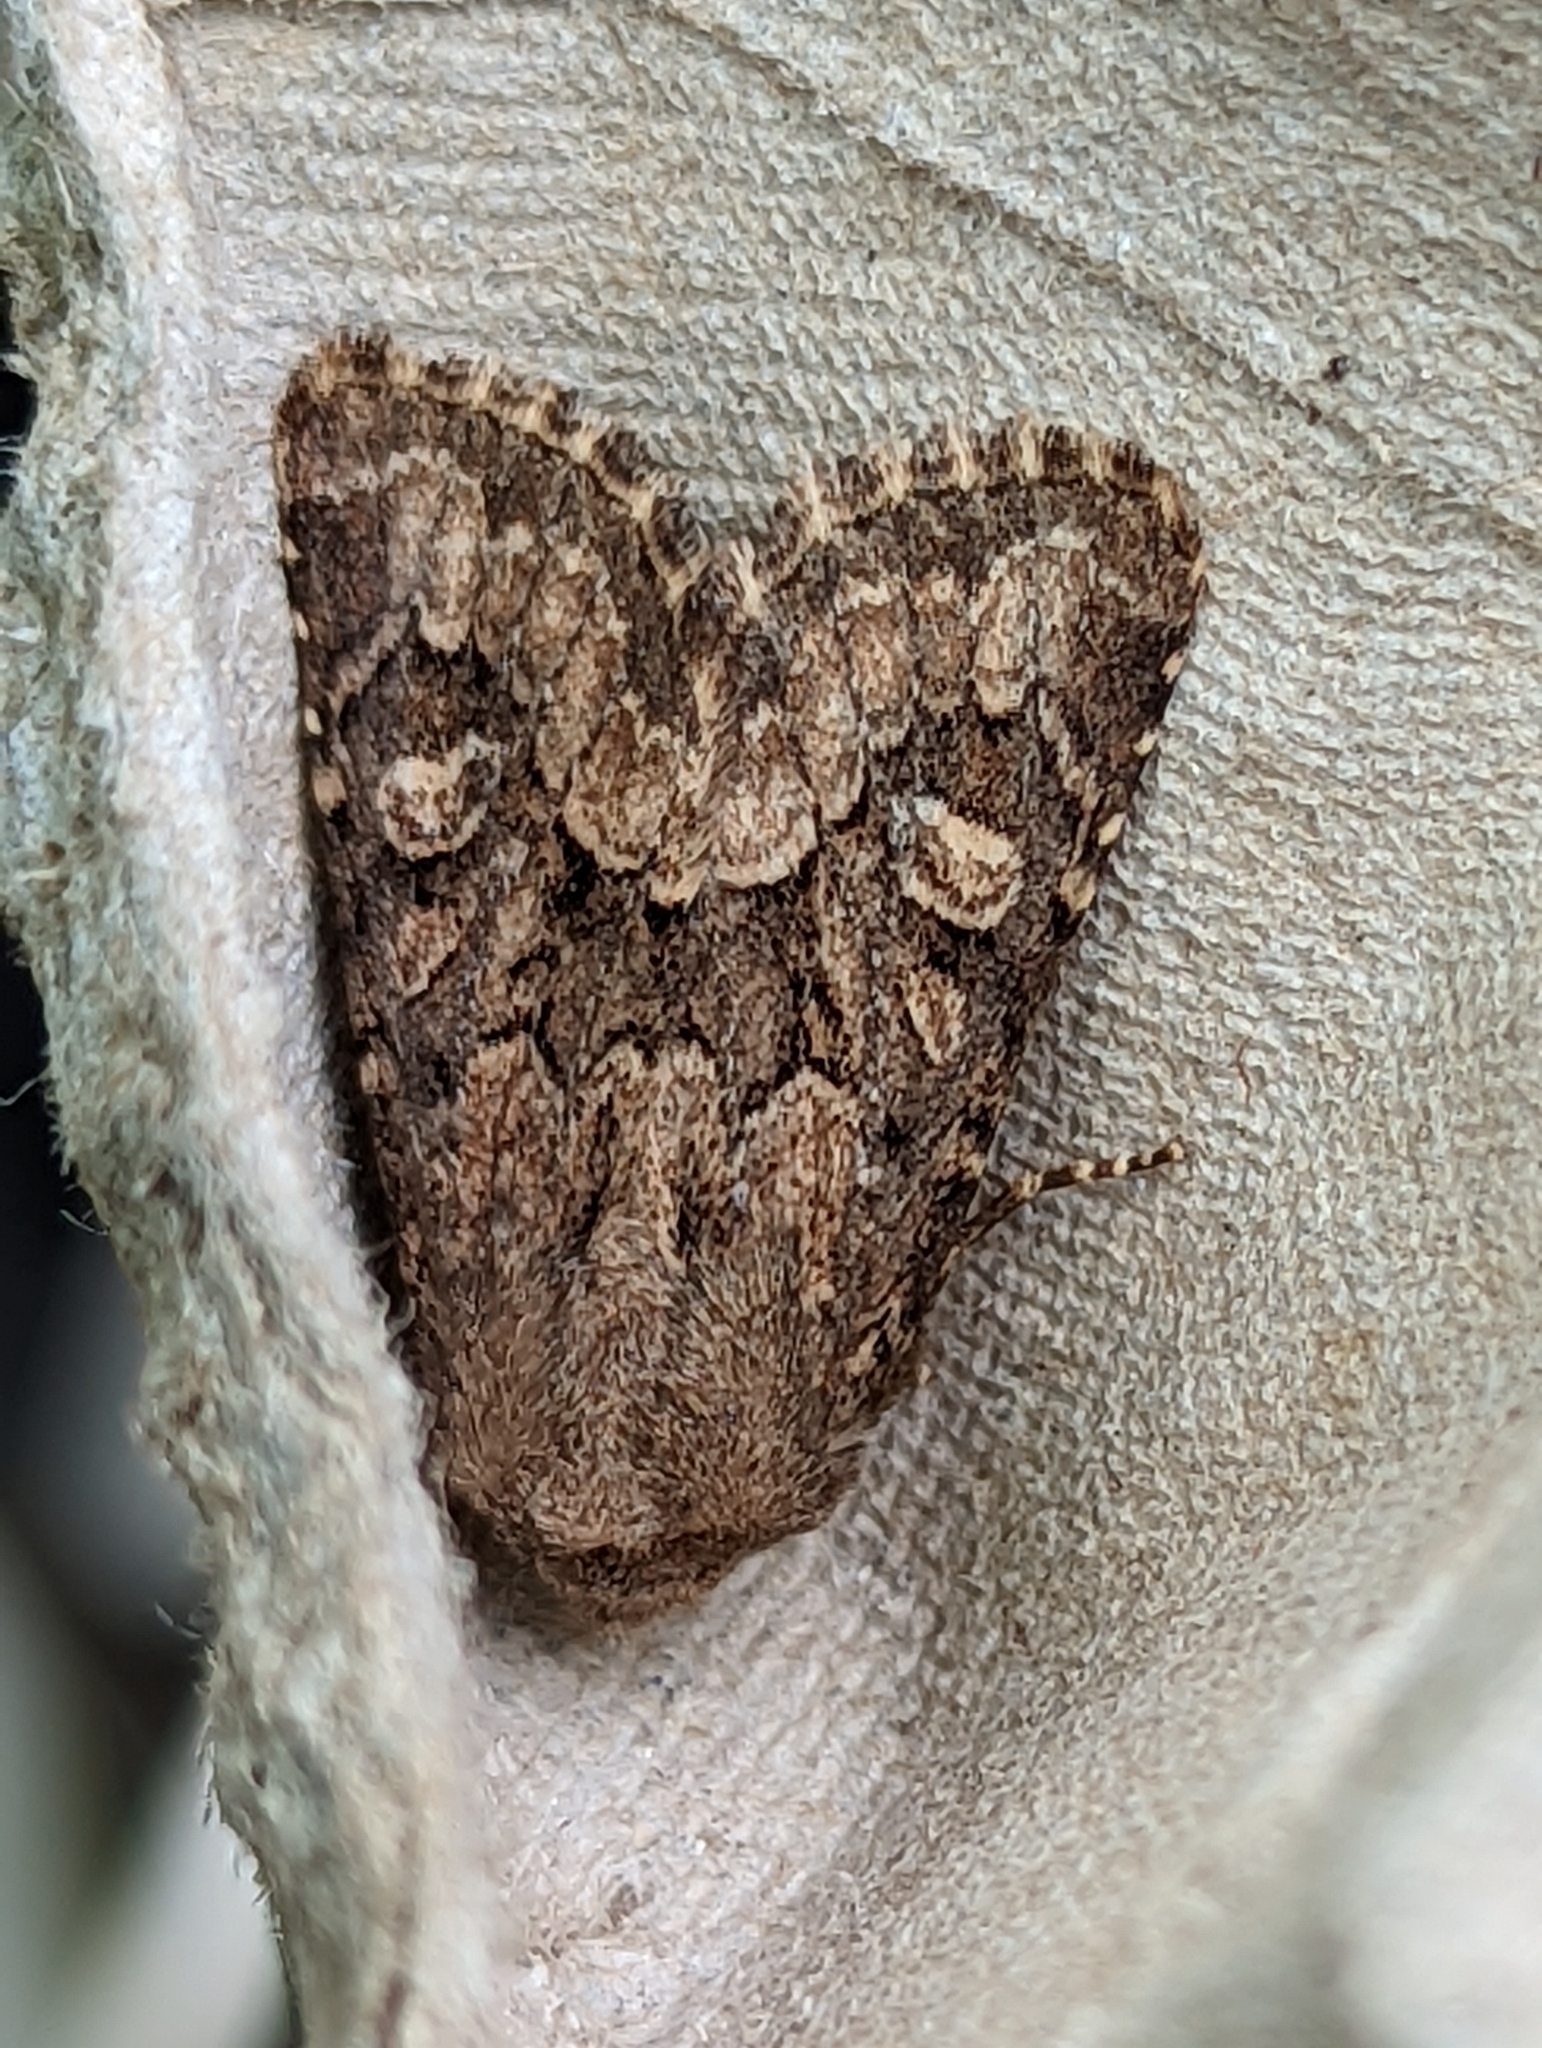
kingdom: Animalia
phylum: Arthropoda
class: Insecta
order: Lepidoptera
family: Noctuidae
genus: Luperina
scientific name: Luperina testacea
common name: Flounced rustic
